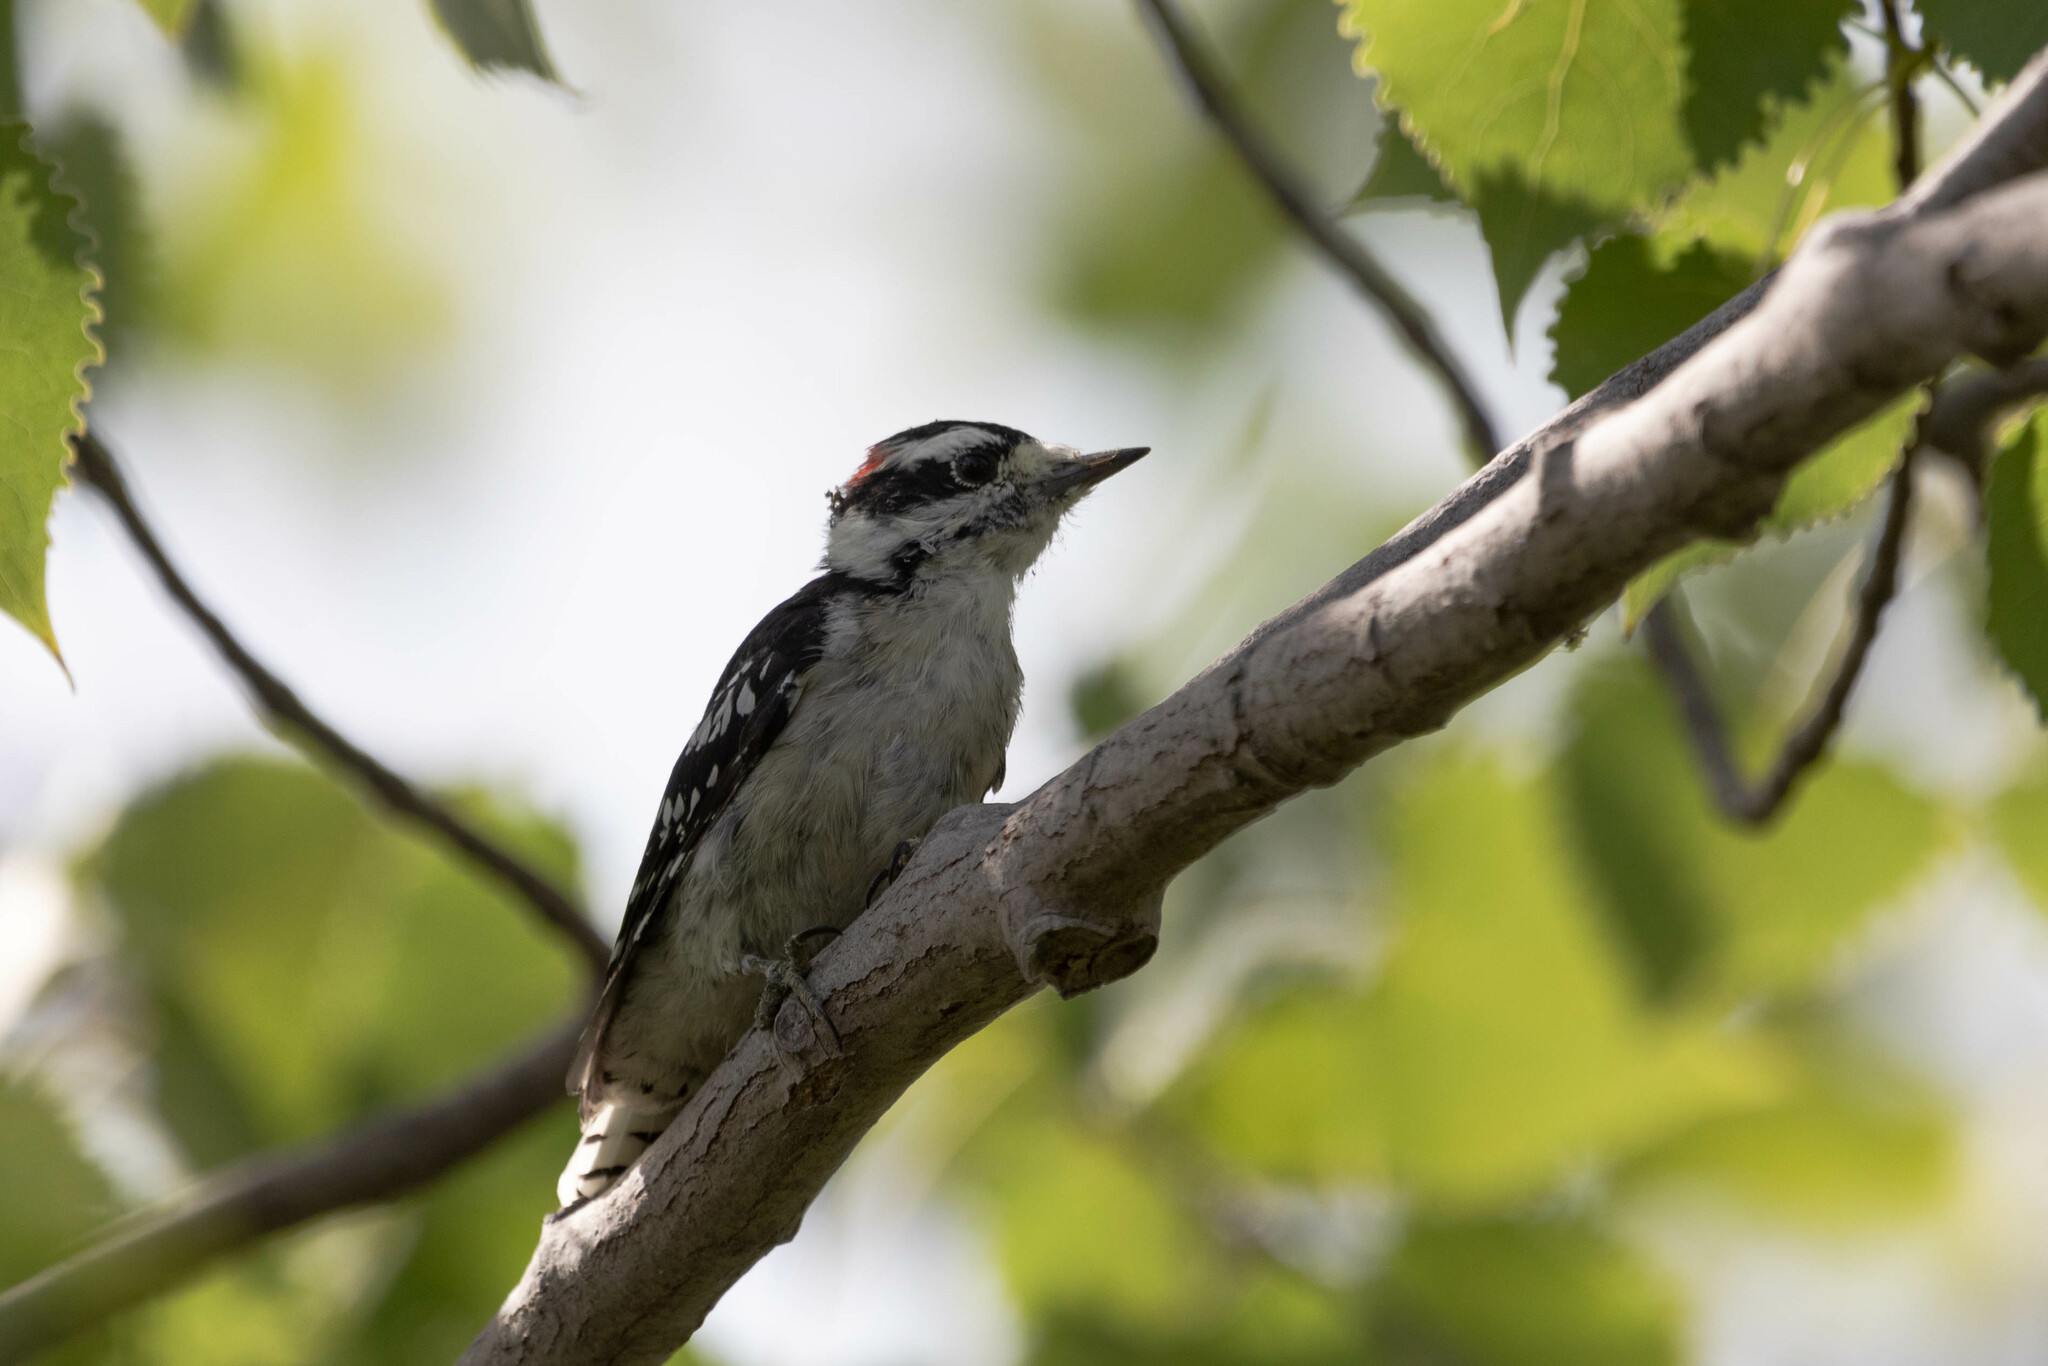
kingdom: Animalia
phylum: Chordata
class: Aves
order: Piciformes
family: Picidae
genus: Dryobates
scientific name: Dryobates pubescens
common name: Downy woodpecker
